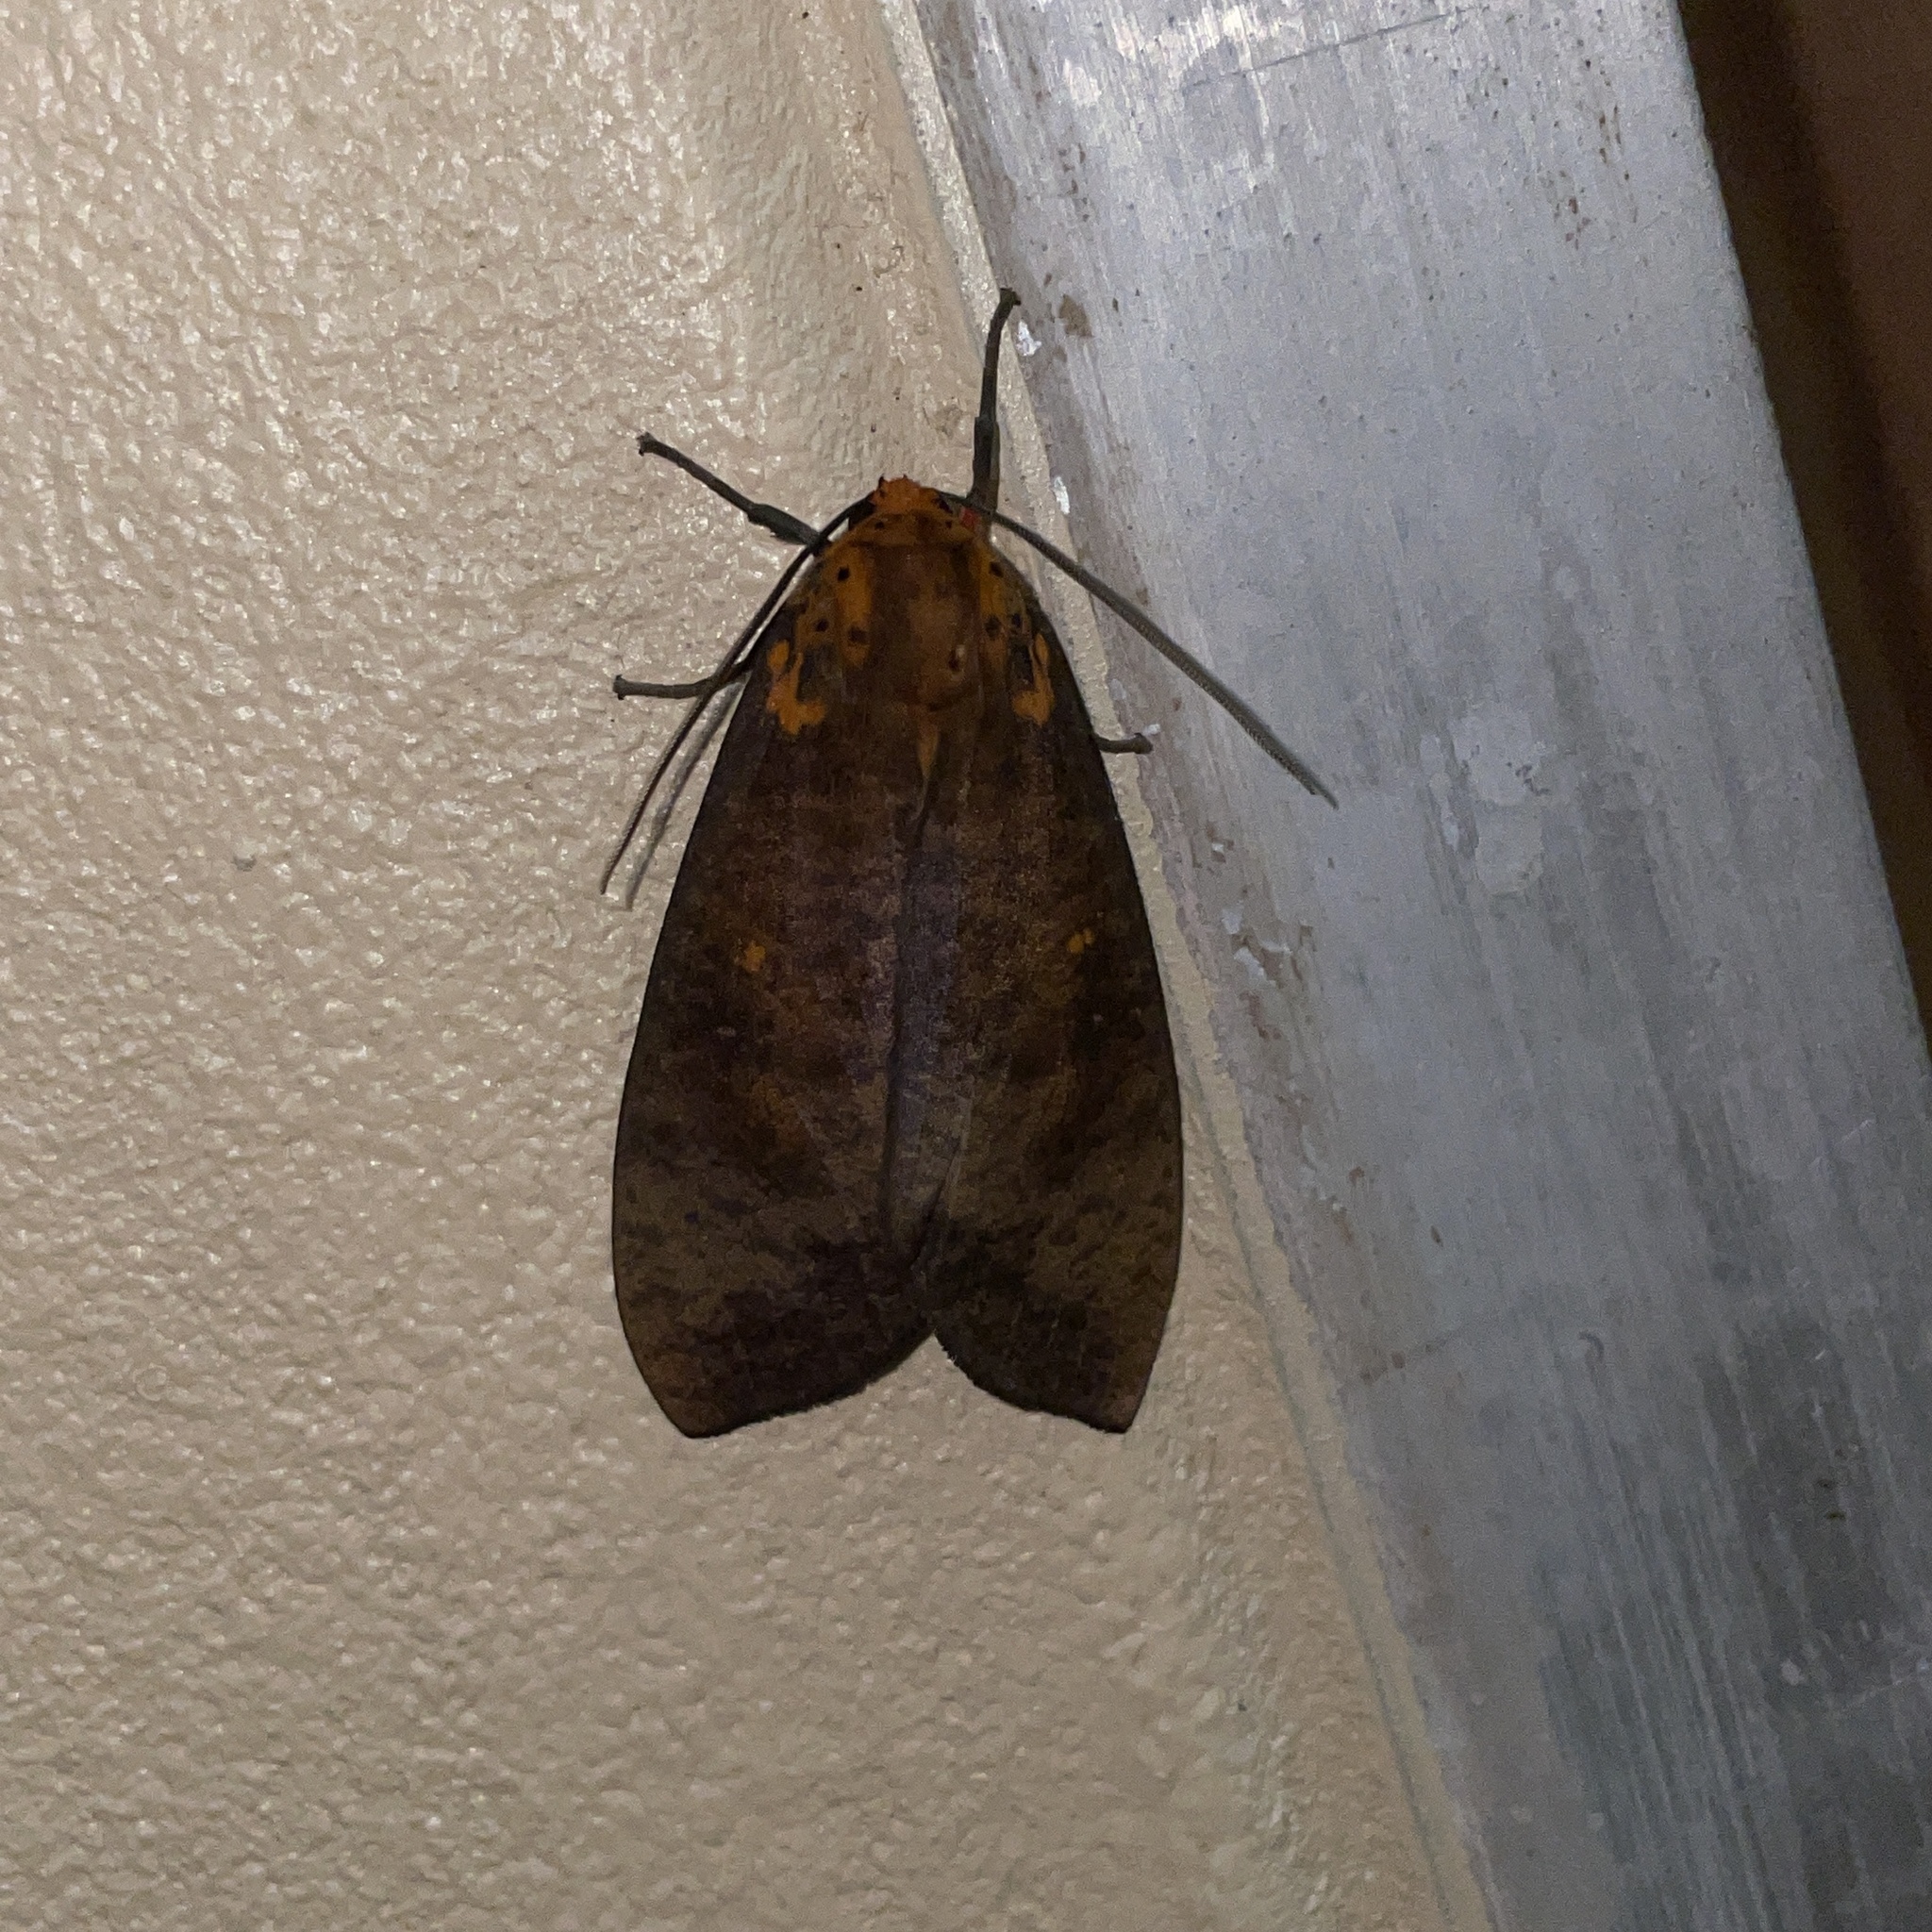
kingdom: Animalia
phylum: Arthropoda
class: Insecta
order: Lepidoptera
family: Erebidae
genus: Ammalo
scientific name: Ammalo helops
